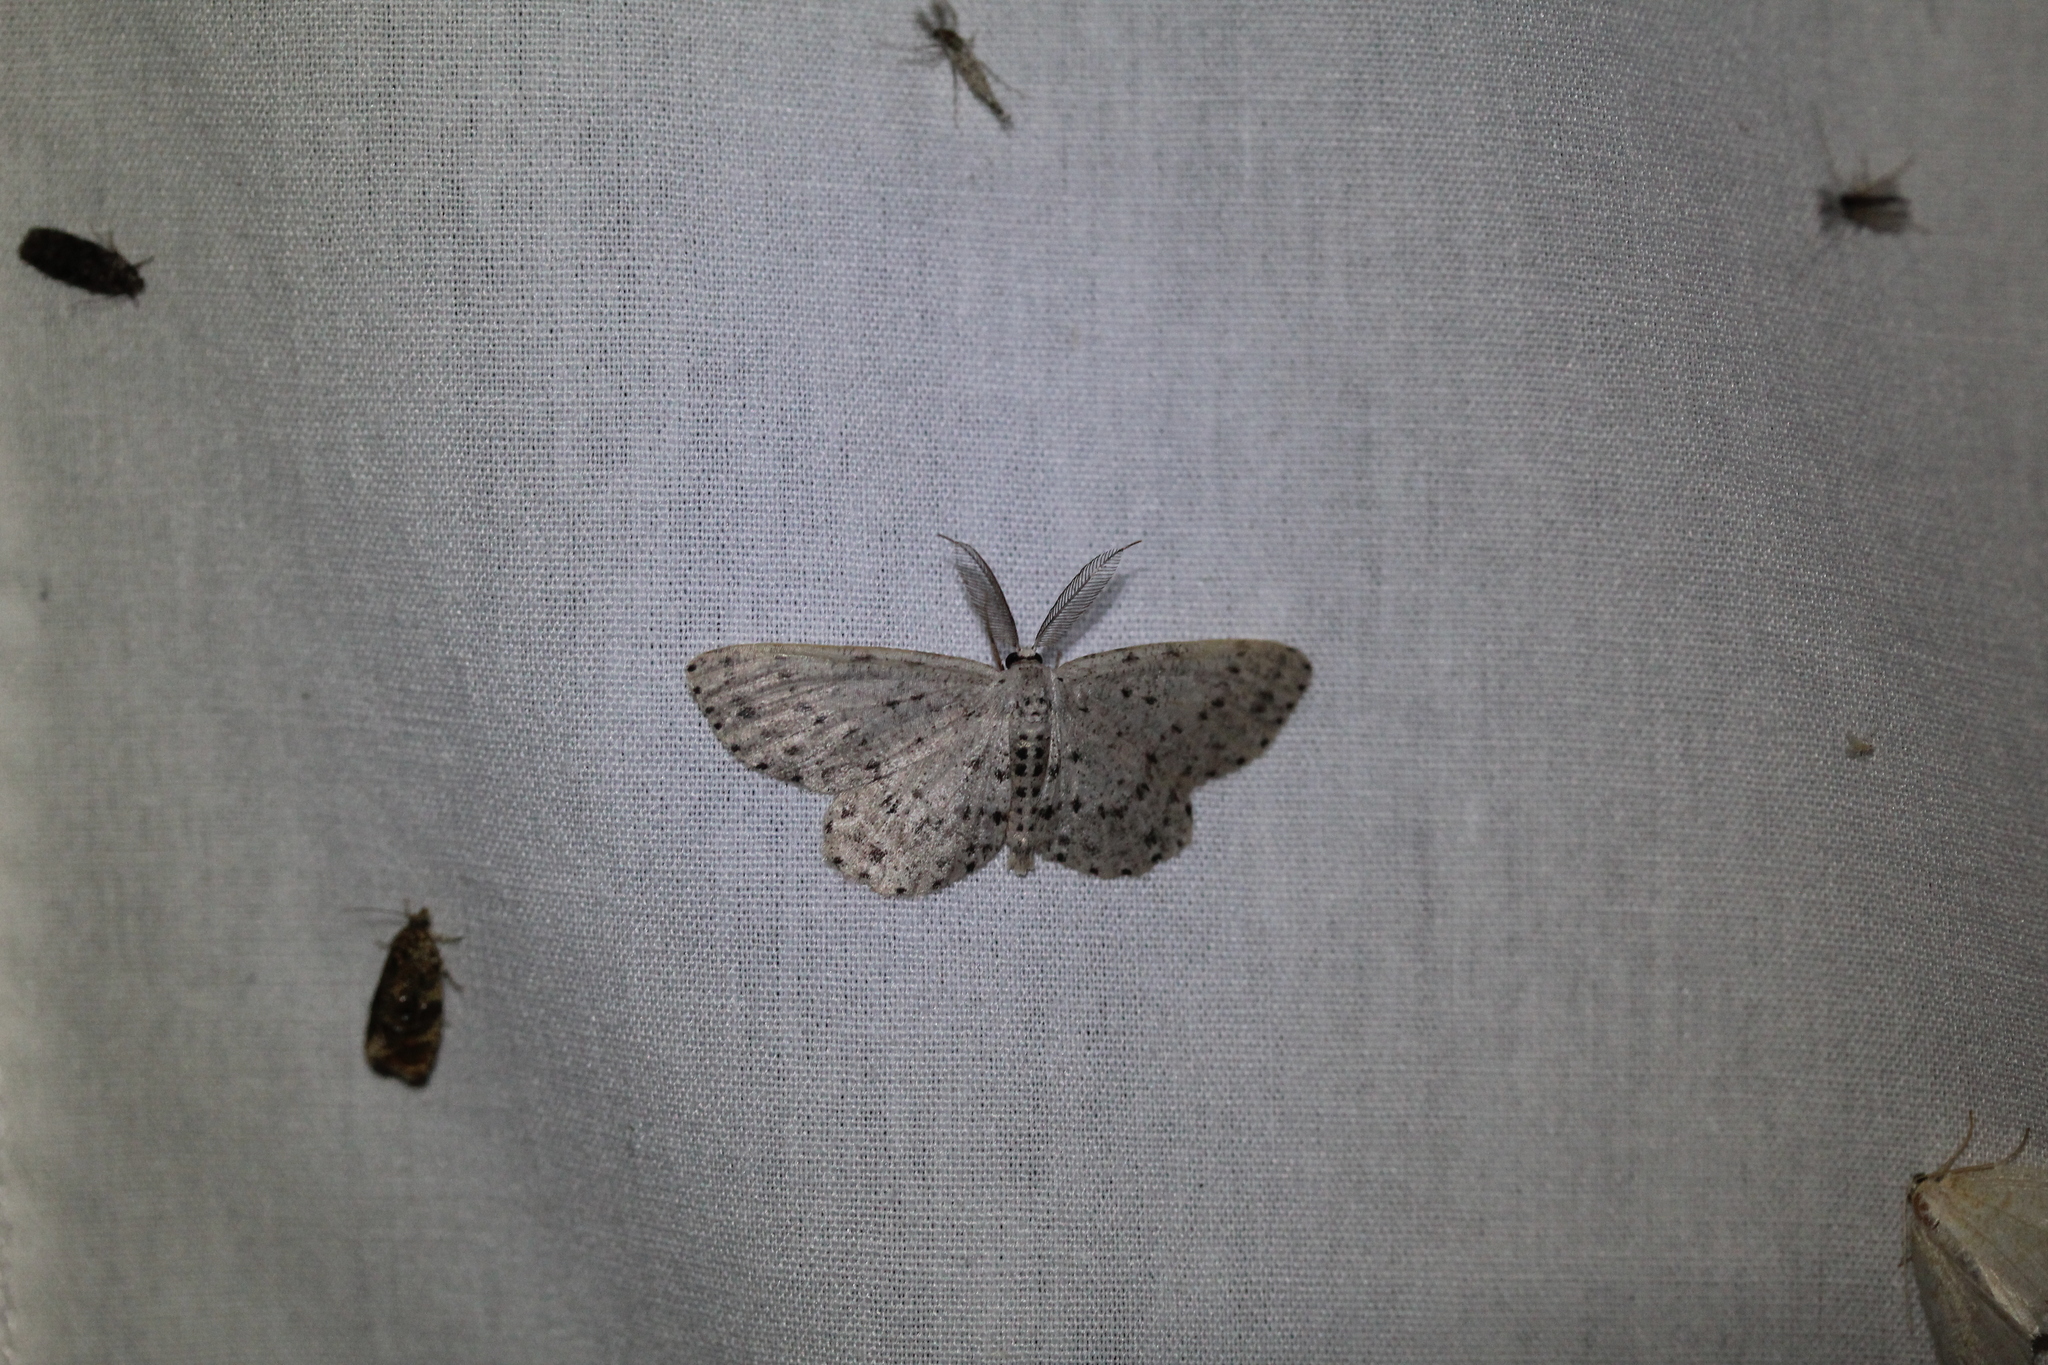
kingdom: Animalia
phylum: Arthropoda
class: Insecta
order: Lepidoptera
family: Geometridae
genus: Glena
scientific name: Glena cribrataria
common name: Dotted gray
